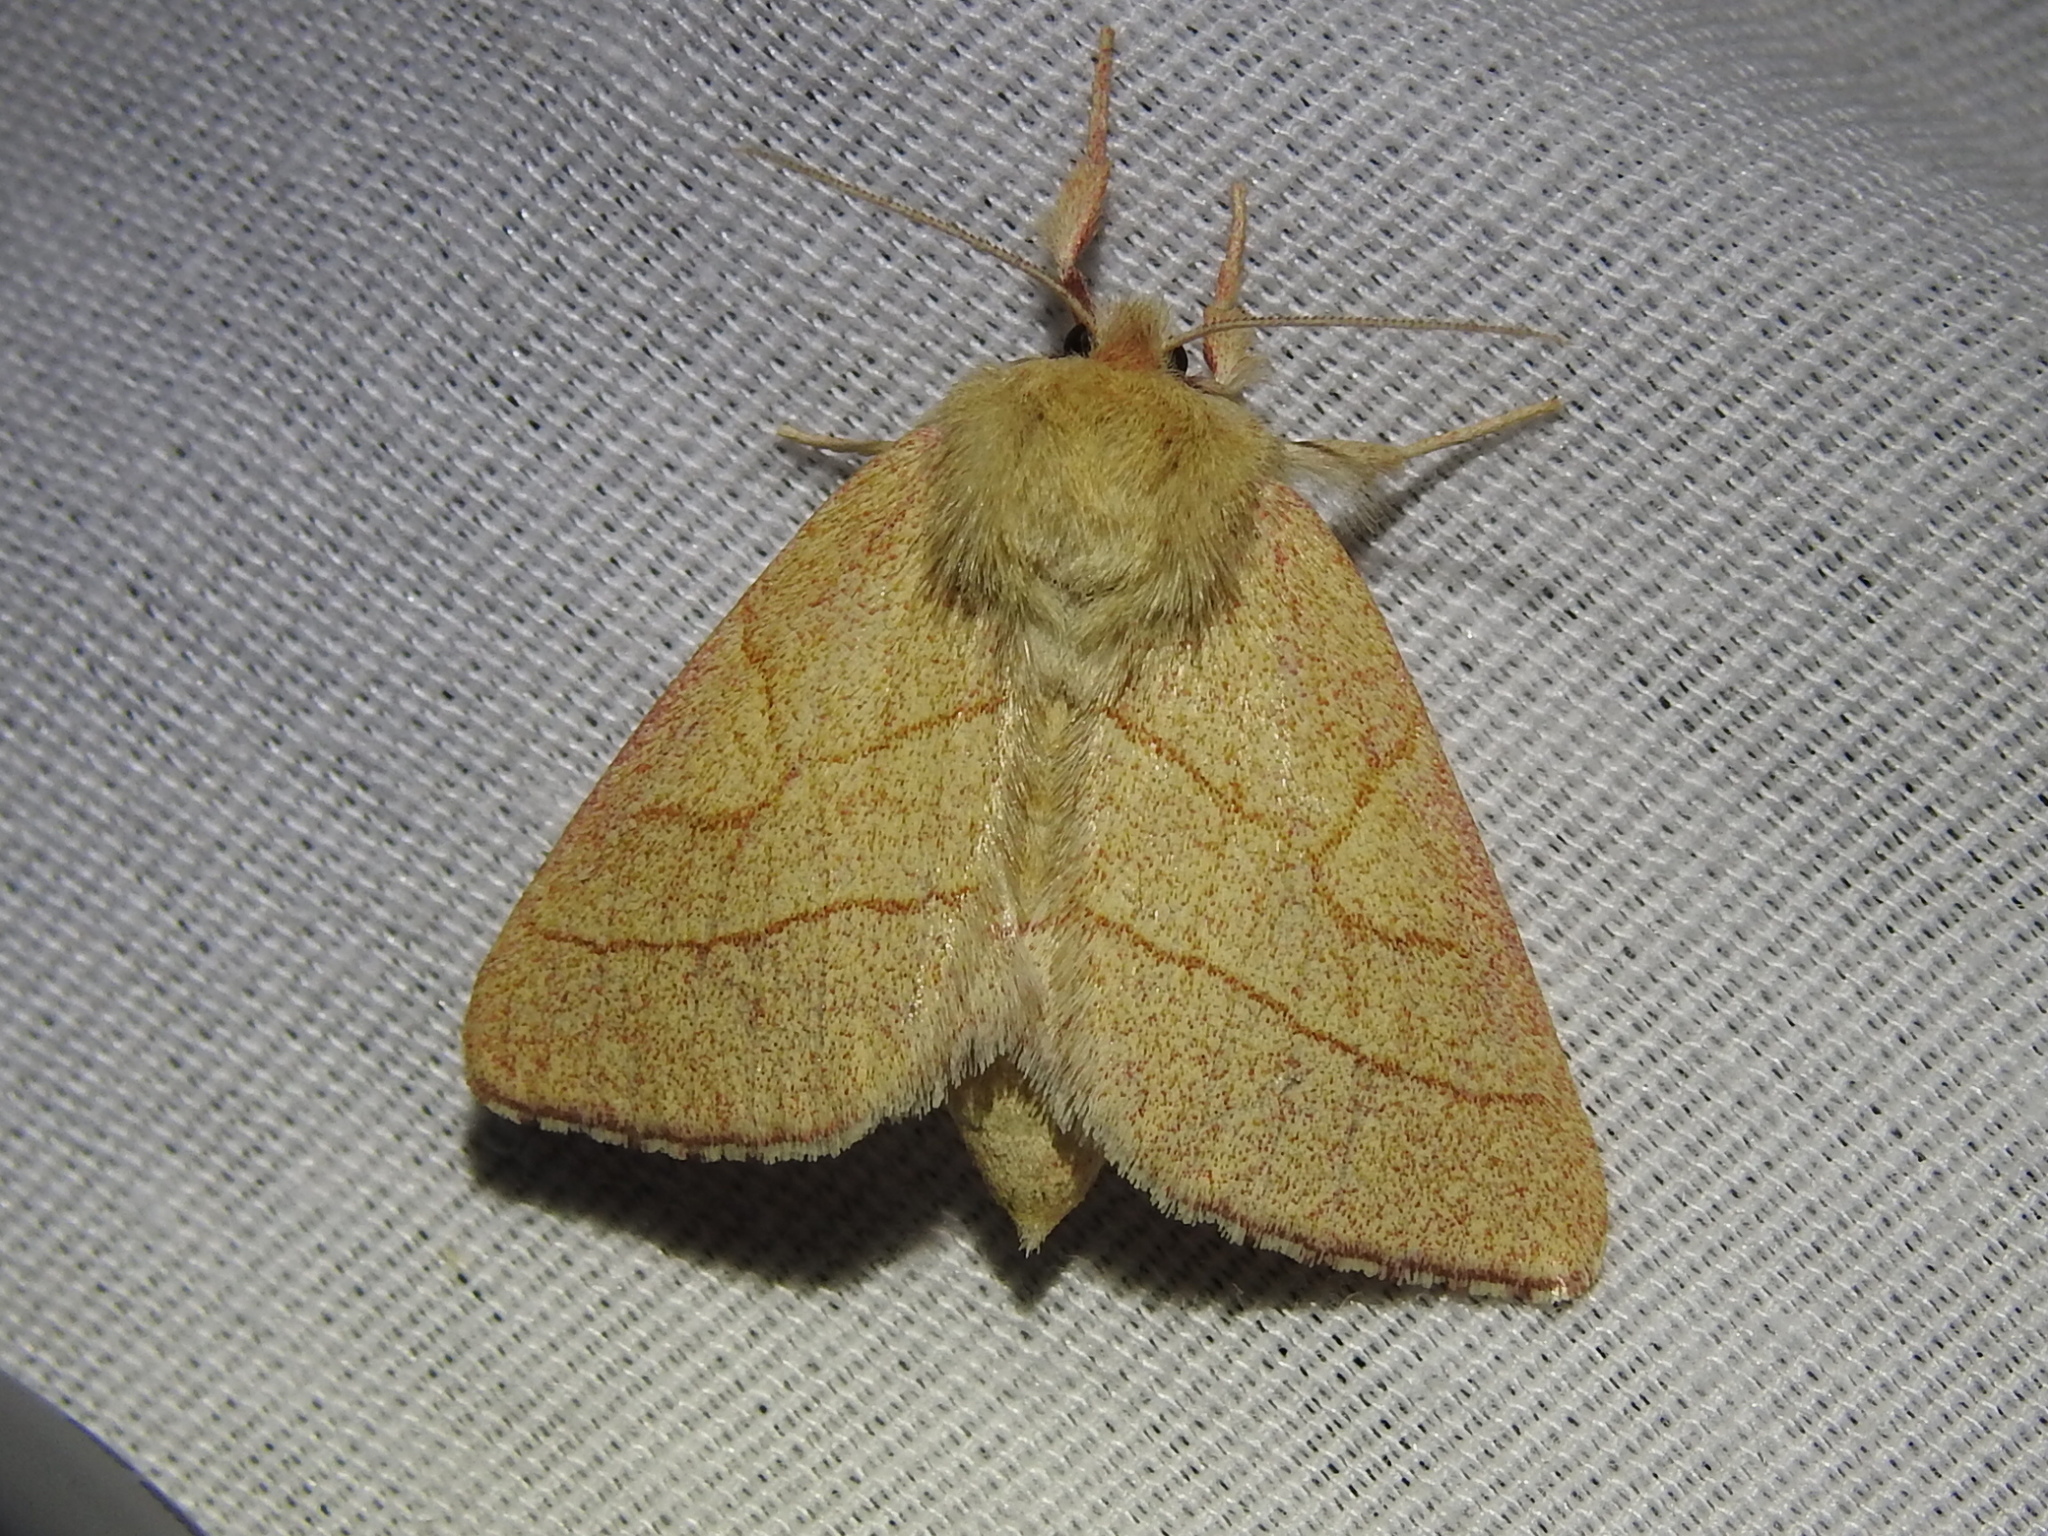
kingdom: Animalia
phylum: Arthropoda
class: Insecta
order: Lepidoptera
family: Notodontidae
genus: Hyparpax
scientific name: Hyparpax aurostriata
